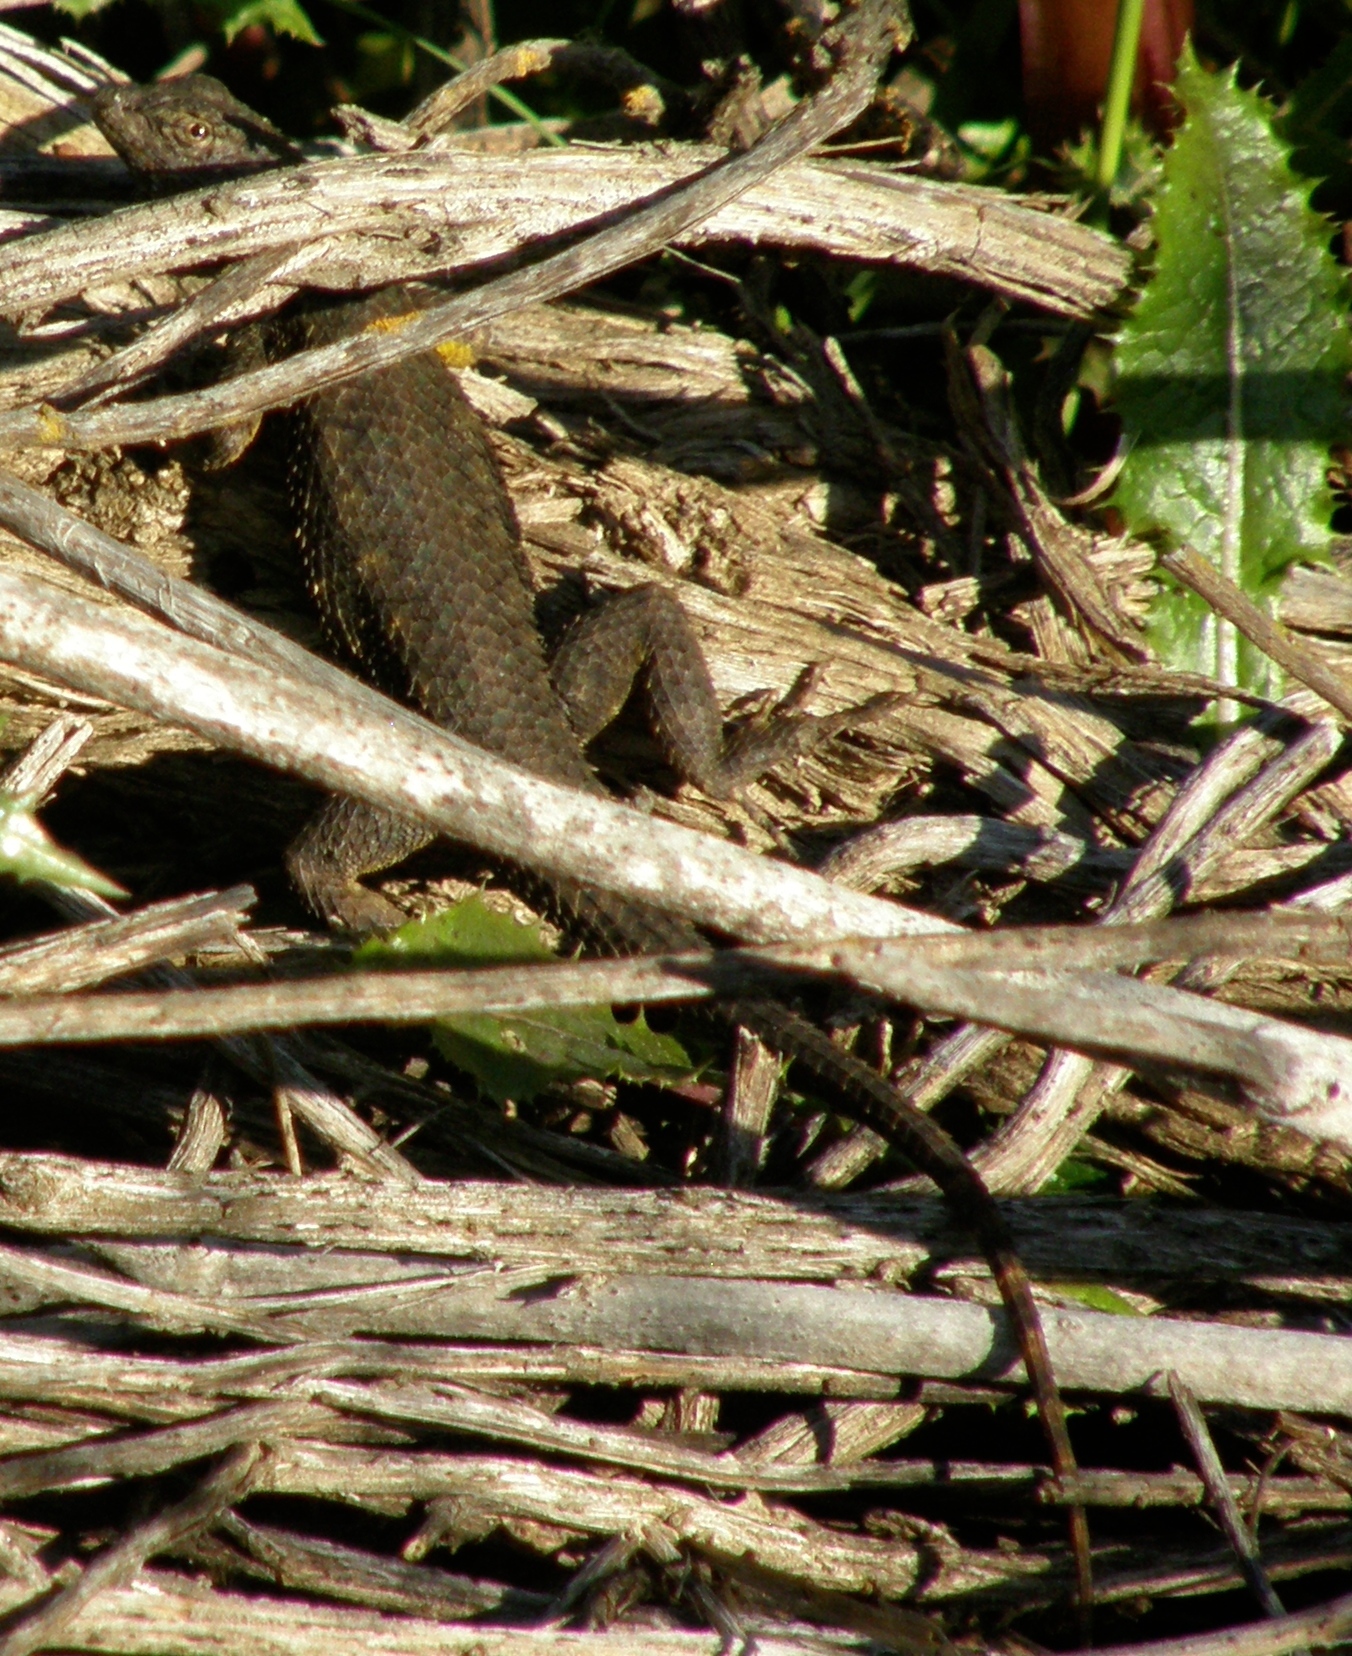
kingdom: Animalia
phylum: Chordata
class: Squamata
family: Phrynosomatidae
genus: Sceloporus
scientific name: Sceloporus occidentalis
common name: Western fence lizard
